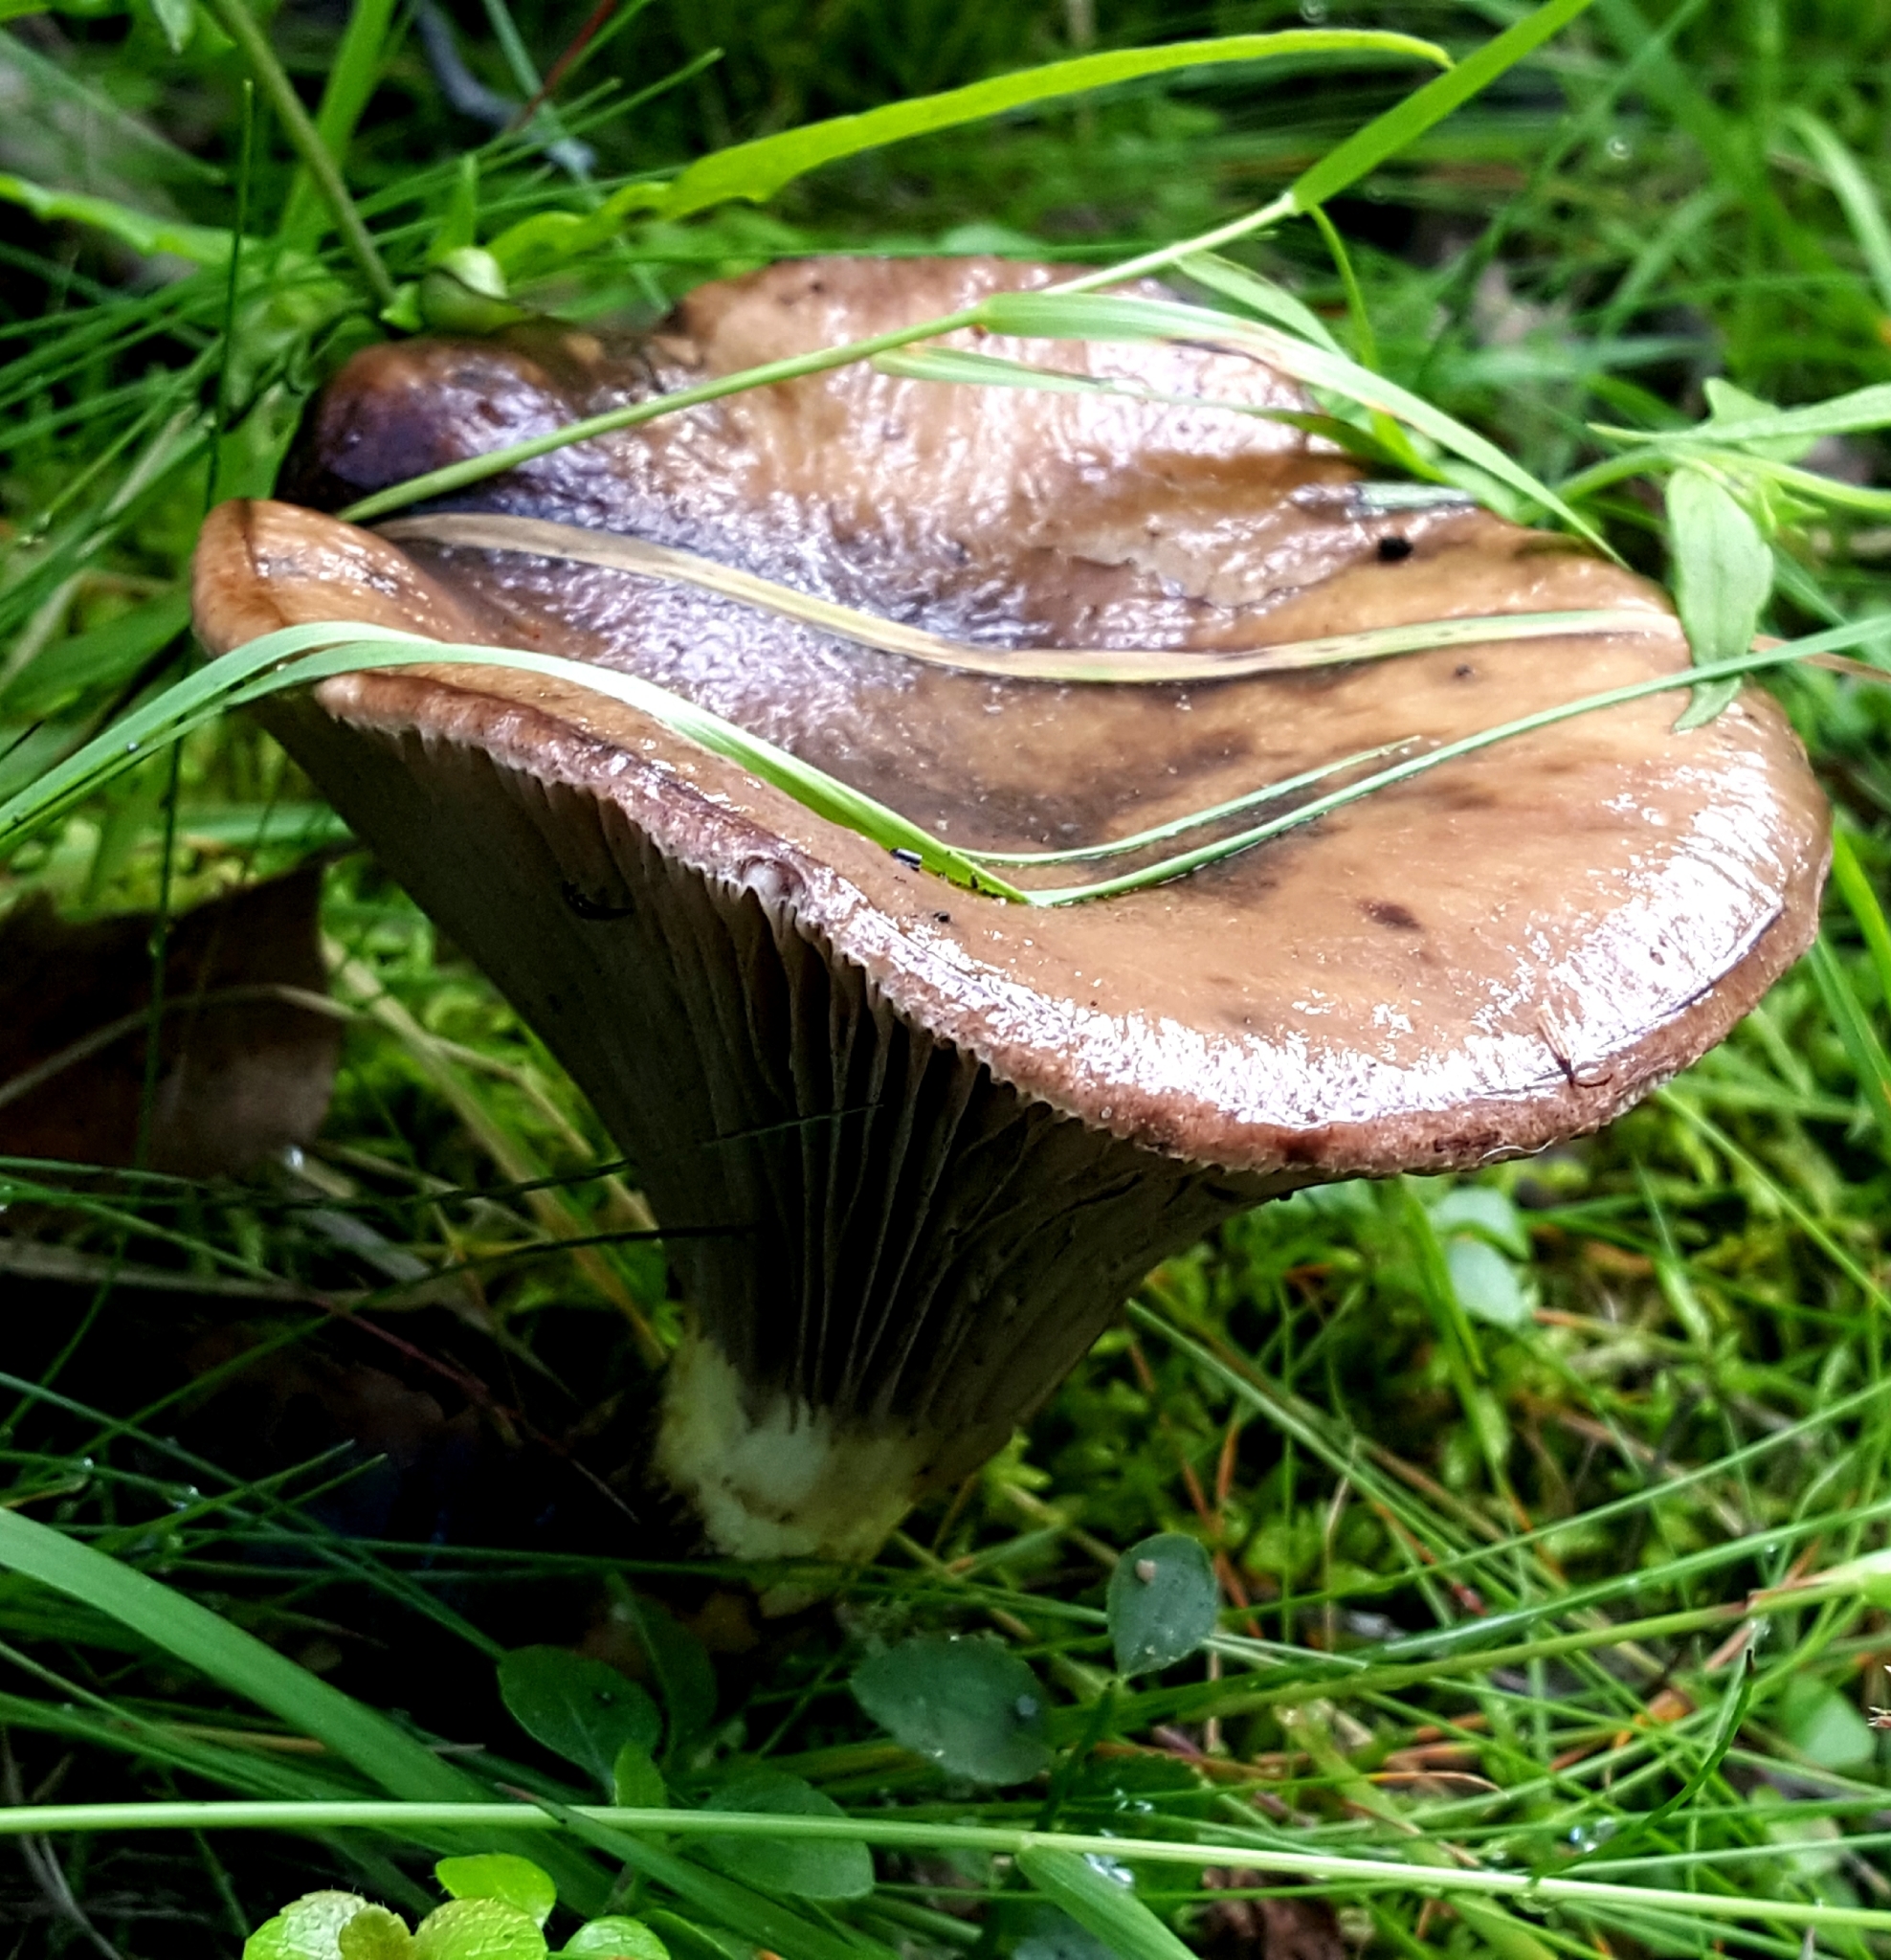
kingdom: Fungi
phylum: Basidiomycota
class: Agaricomycetes
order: Boletales
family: Gomphidiaceae
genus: Gomphidius
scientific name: Gomphidius glutinosus
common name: Slimy spike
